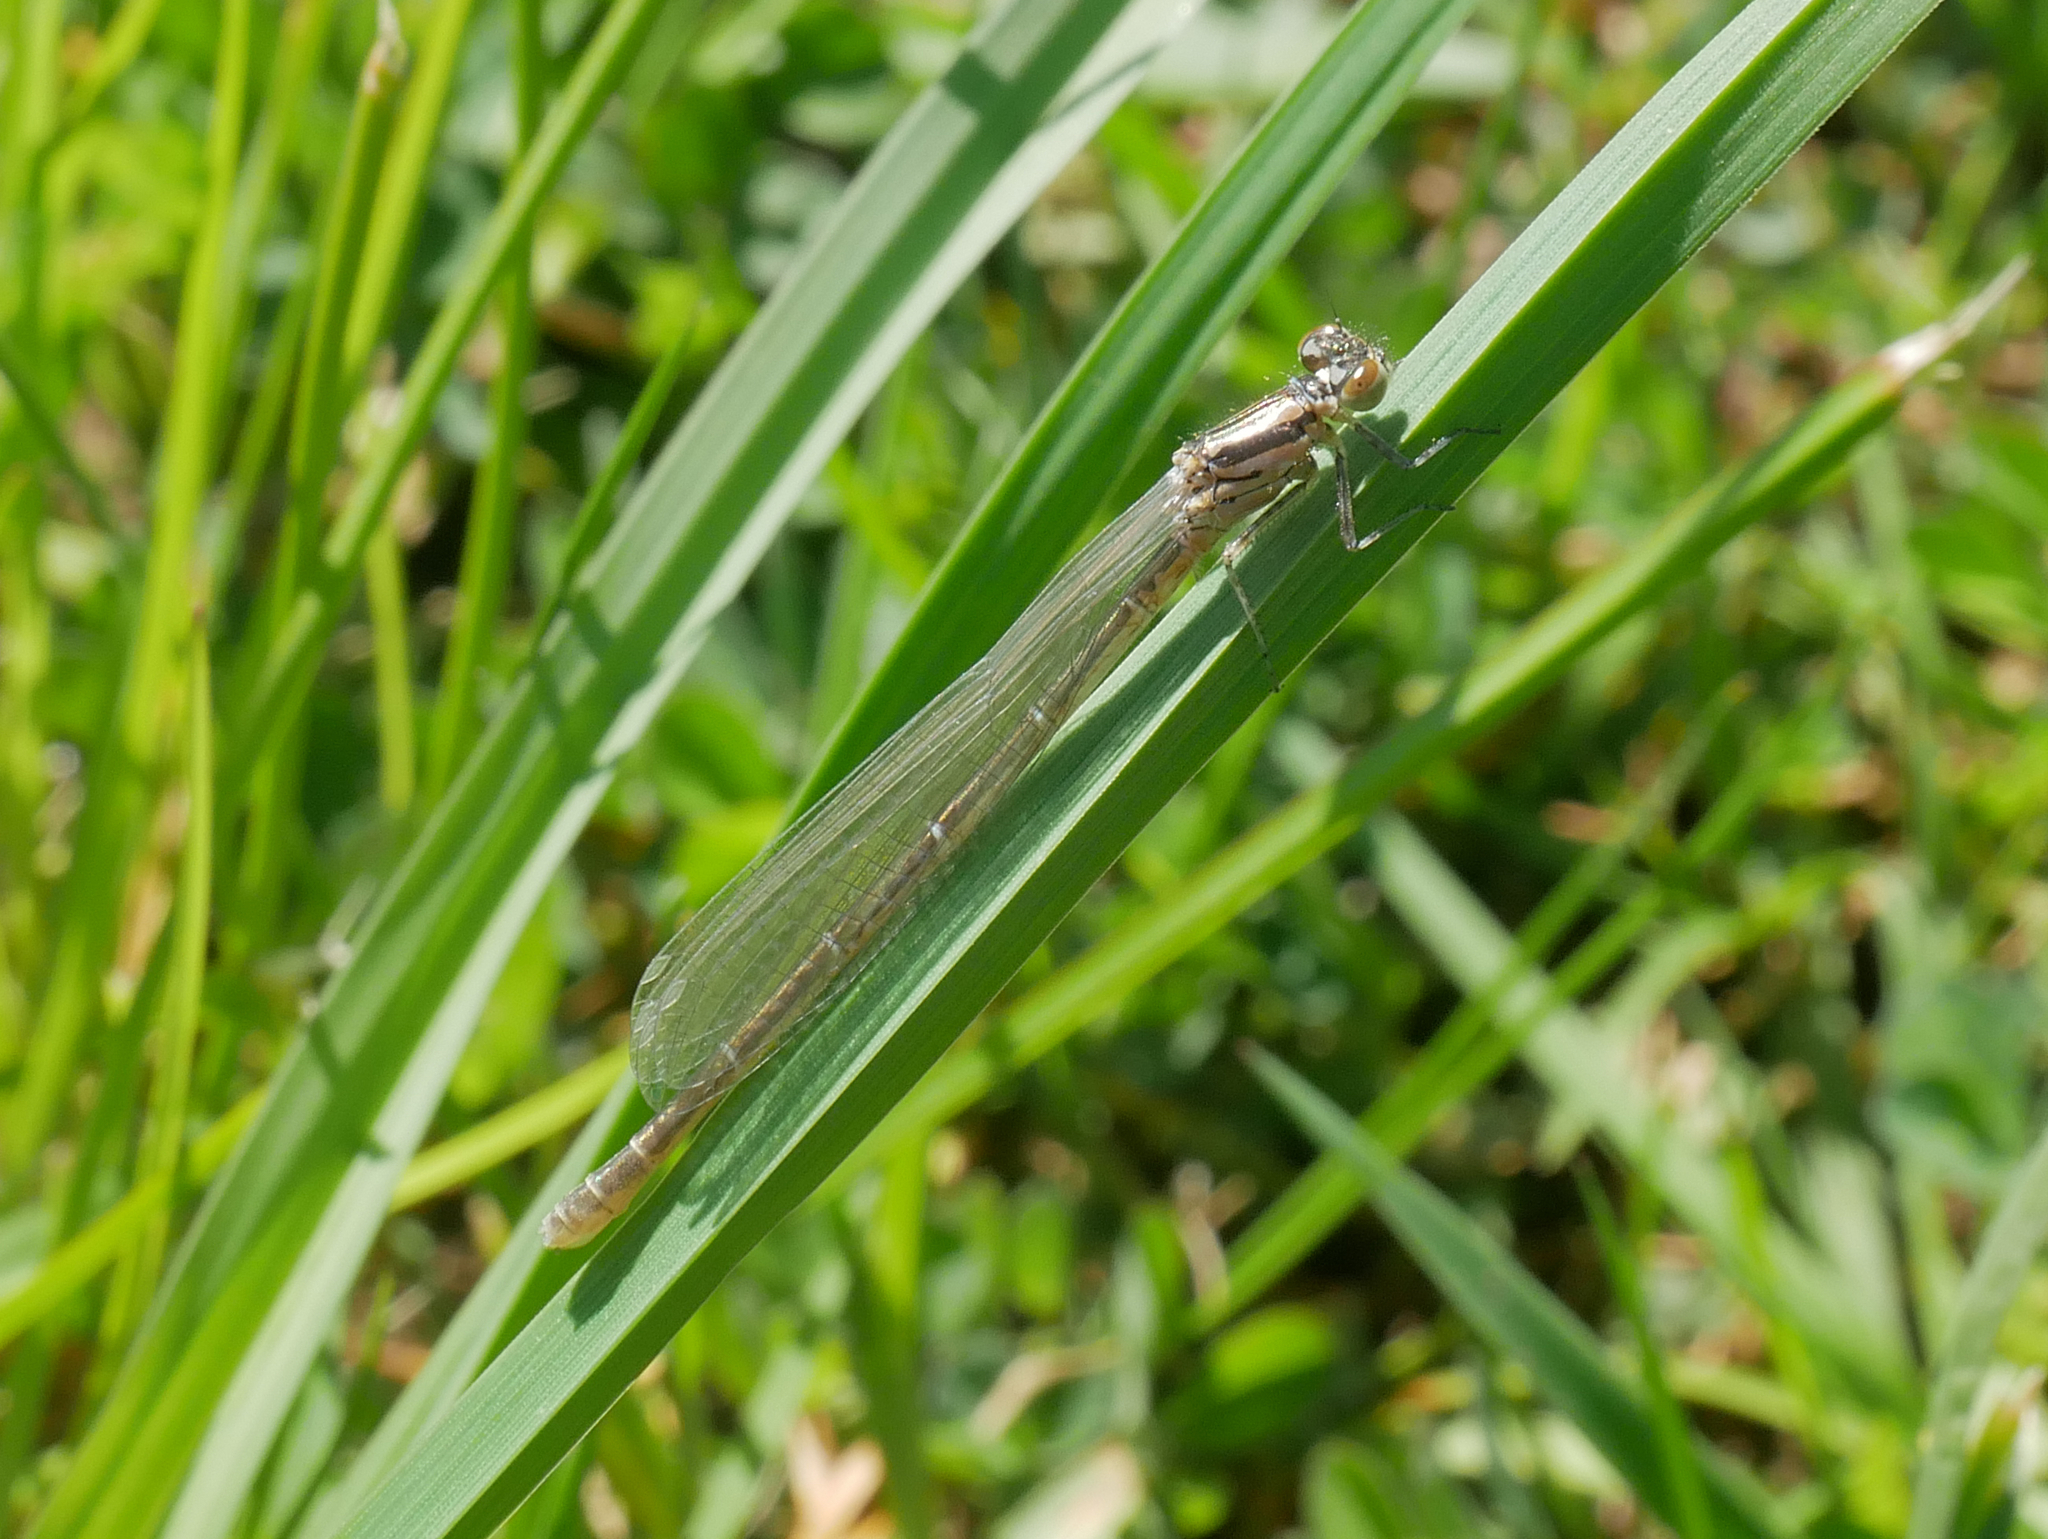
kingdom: Animalia
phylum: Arthropoda
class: Insecta
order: Odonata
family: Coenagrionidae
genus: Coenagrion
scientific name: Coenagrion puella
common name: Azure damselfly
